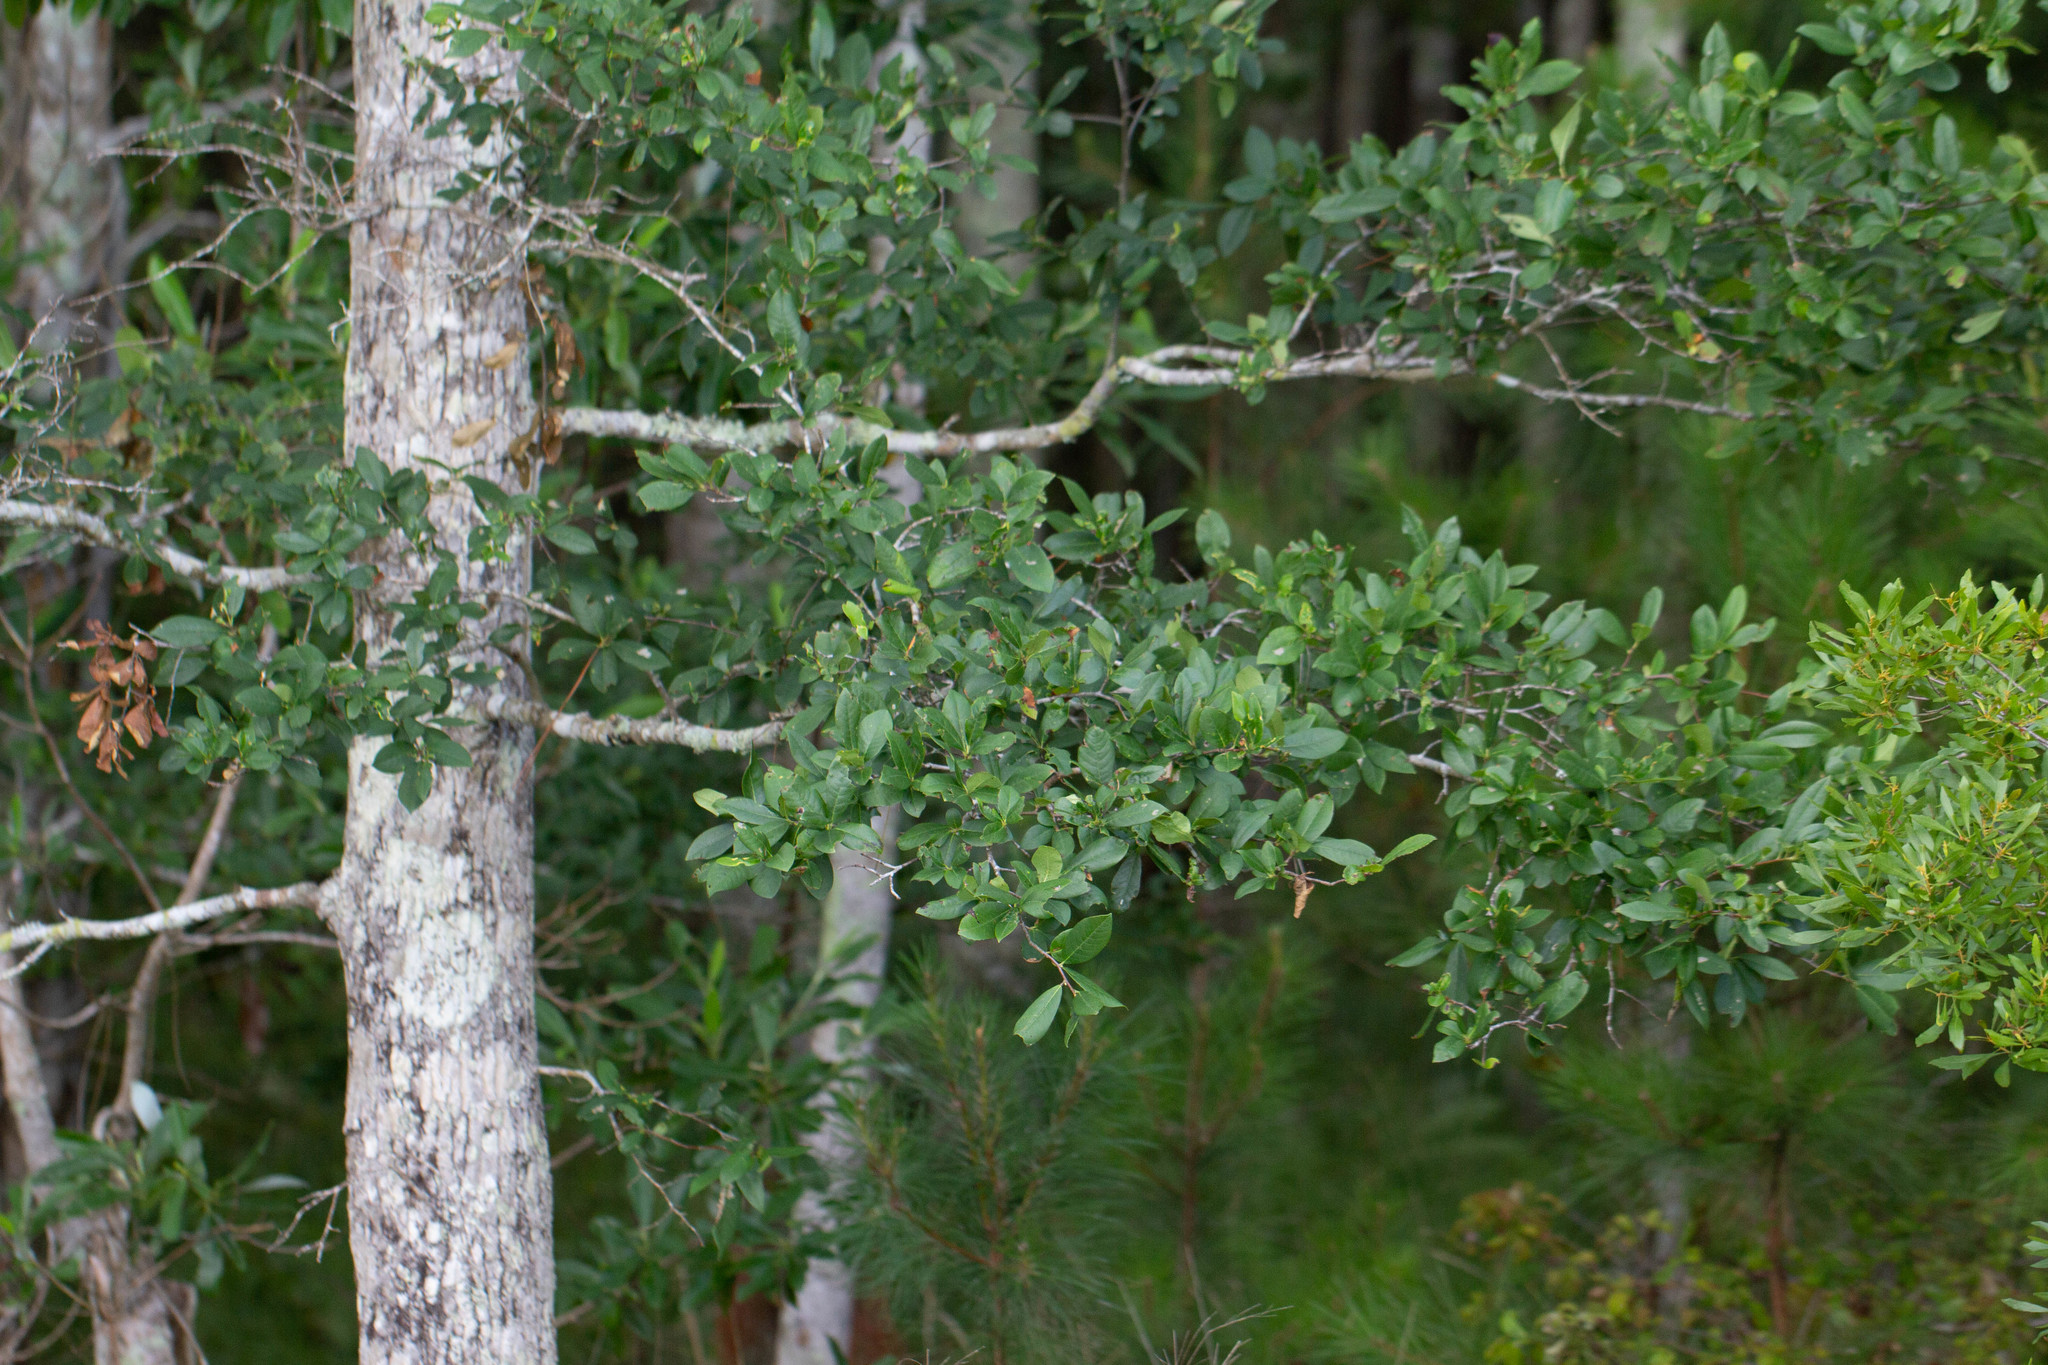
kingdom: Plantae
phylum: Tracheophyta
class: Magnoliopsida
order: Cornales
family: Nyssaceae
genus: Nyssa
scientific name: Nyssa biflora
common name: Swamp blackgum
